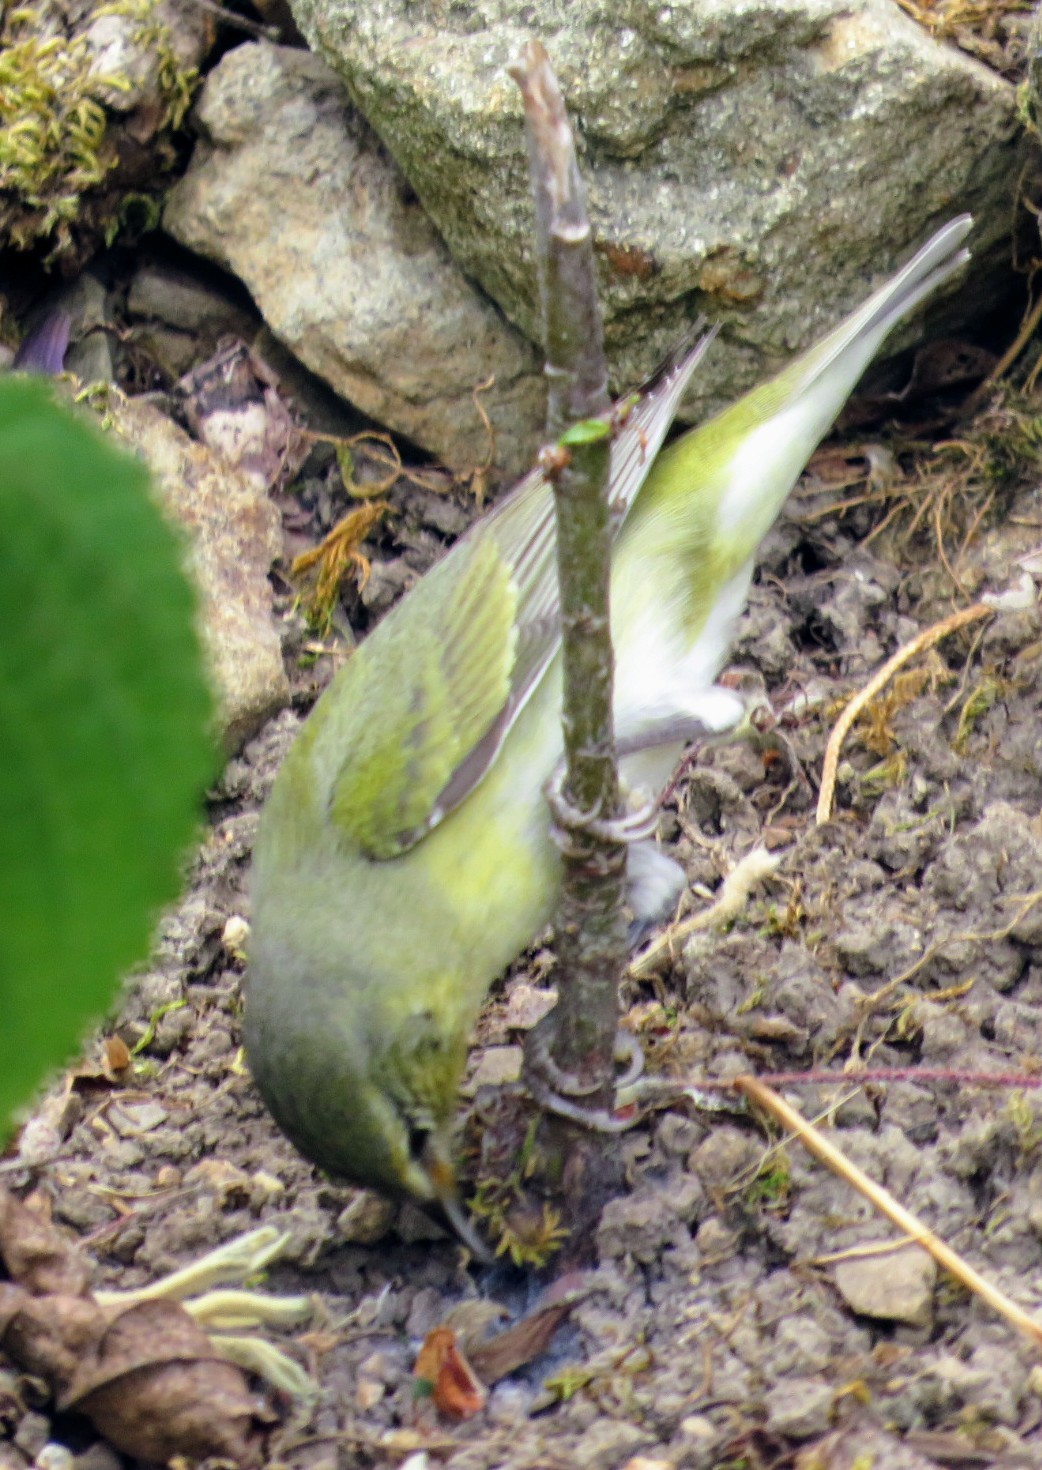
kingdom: Animalia
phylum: Chordata
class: Aves
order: Passeriformes
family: Parulidae
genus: Leiothlypis
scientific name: Leiothlypis peregrina
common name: Tennessee warbler
